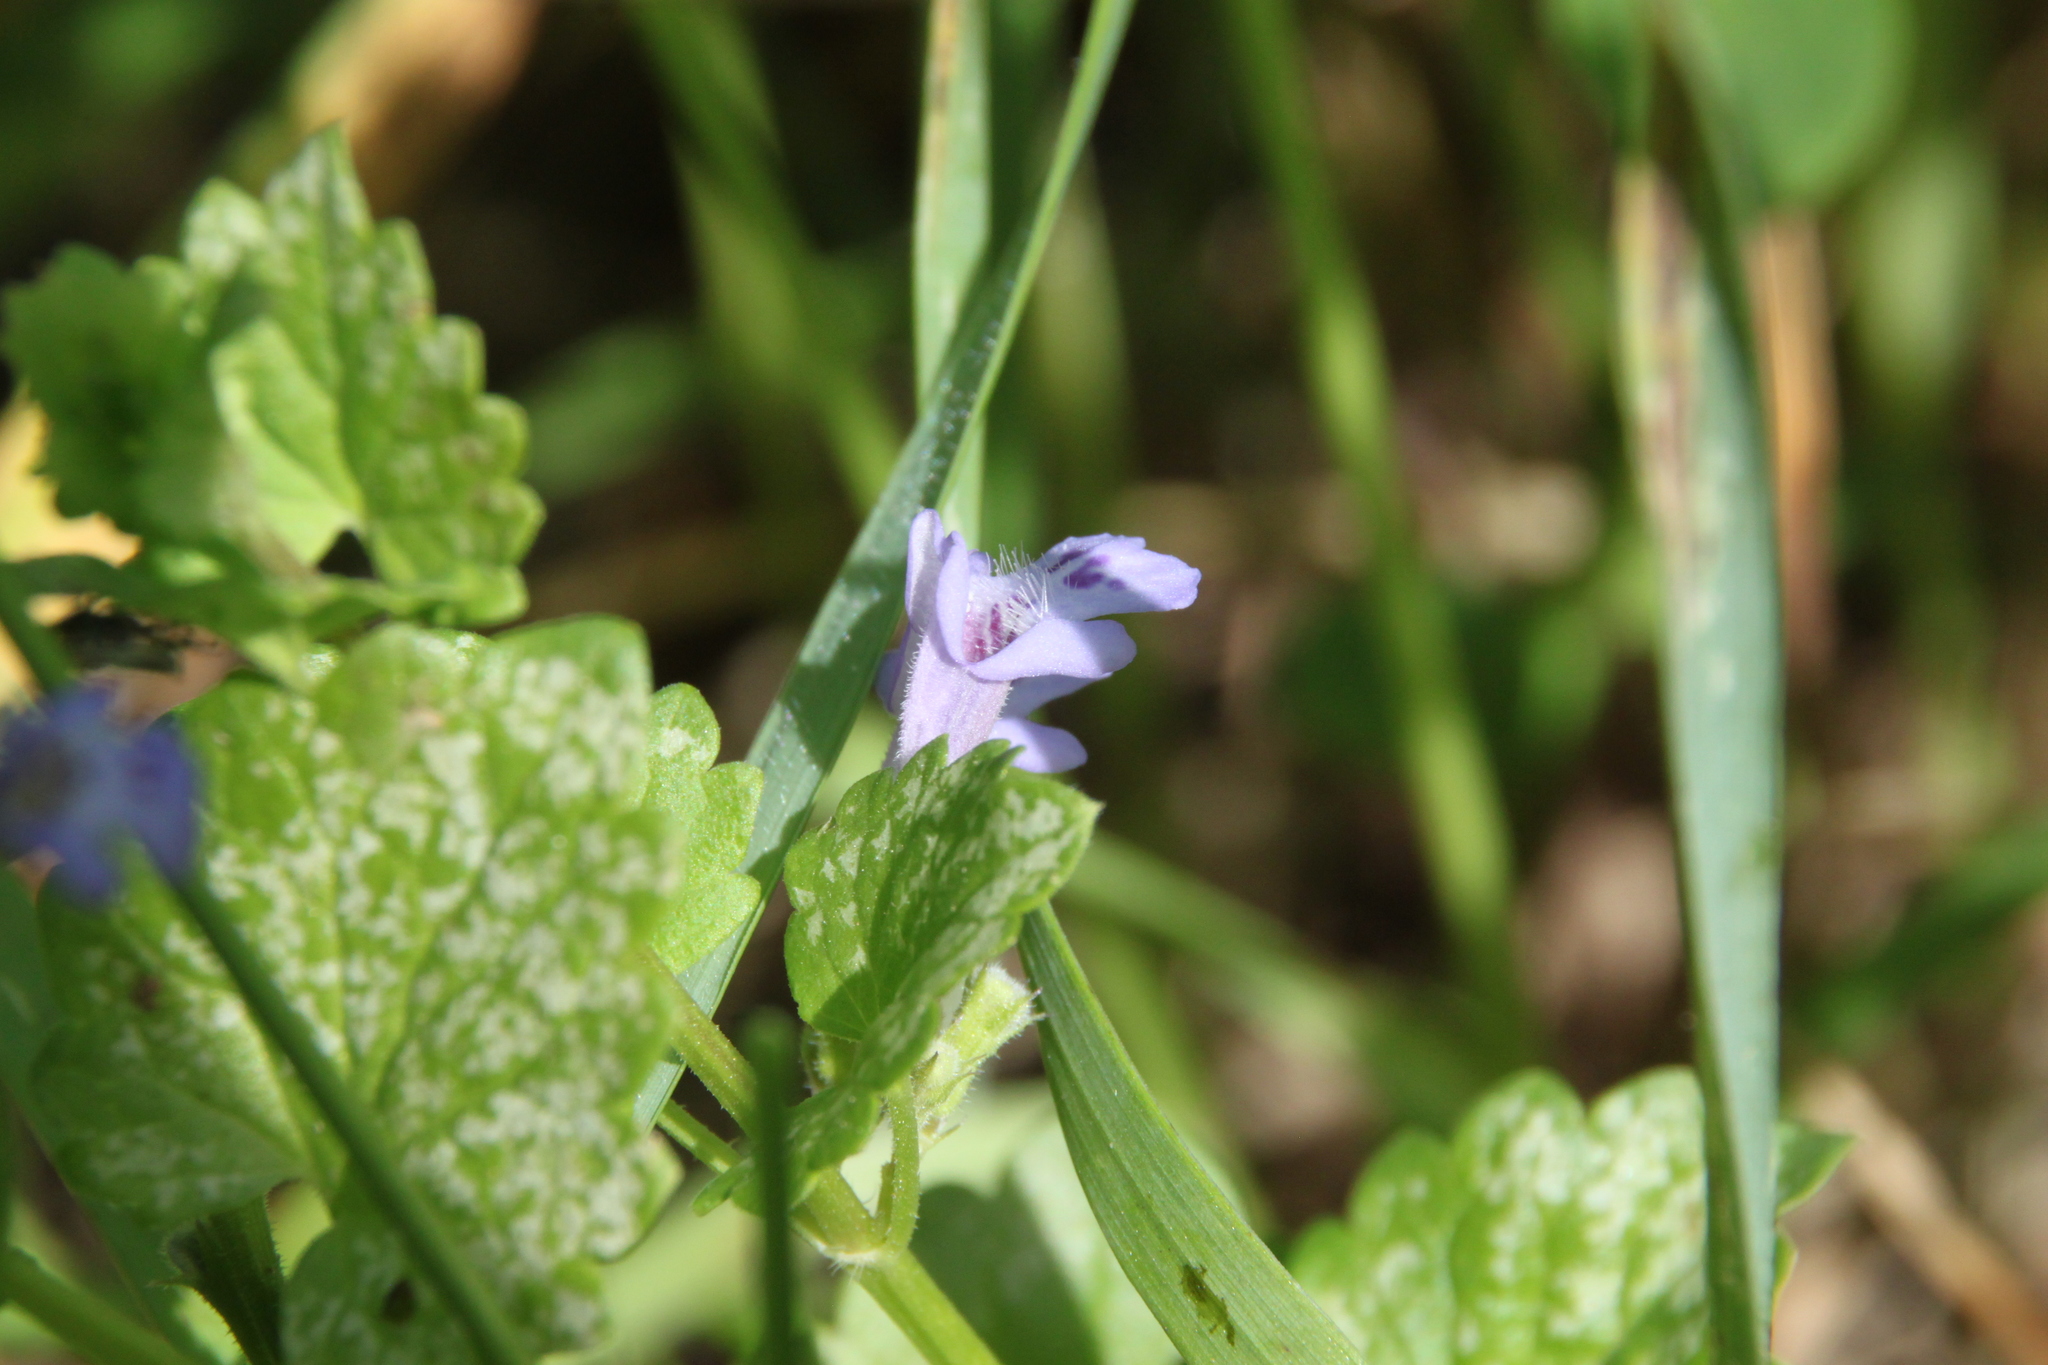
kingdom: Plantae
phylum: Tracheophyta
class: Magnoliopsida
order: Lamiales
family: Lamiaceae
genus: Glechoma
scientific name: Glechoma hederacea
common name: Ground ivy
